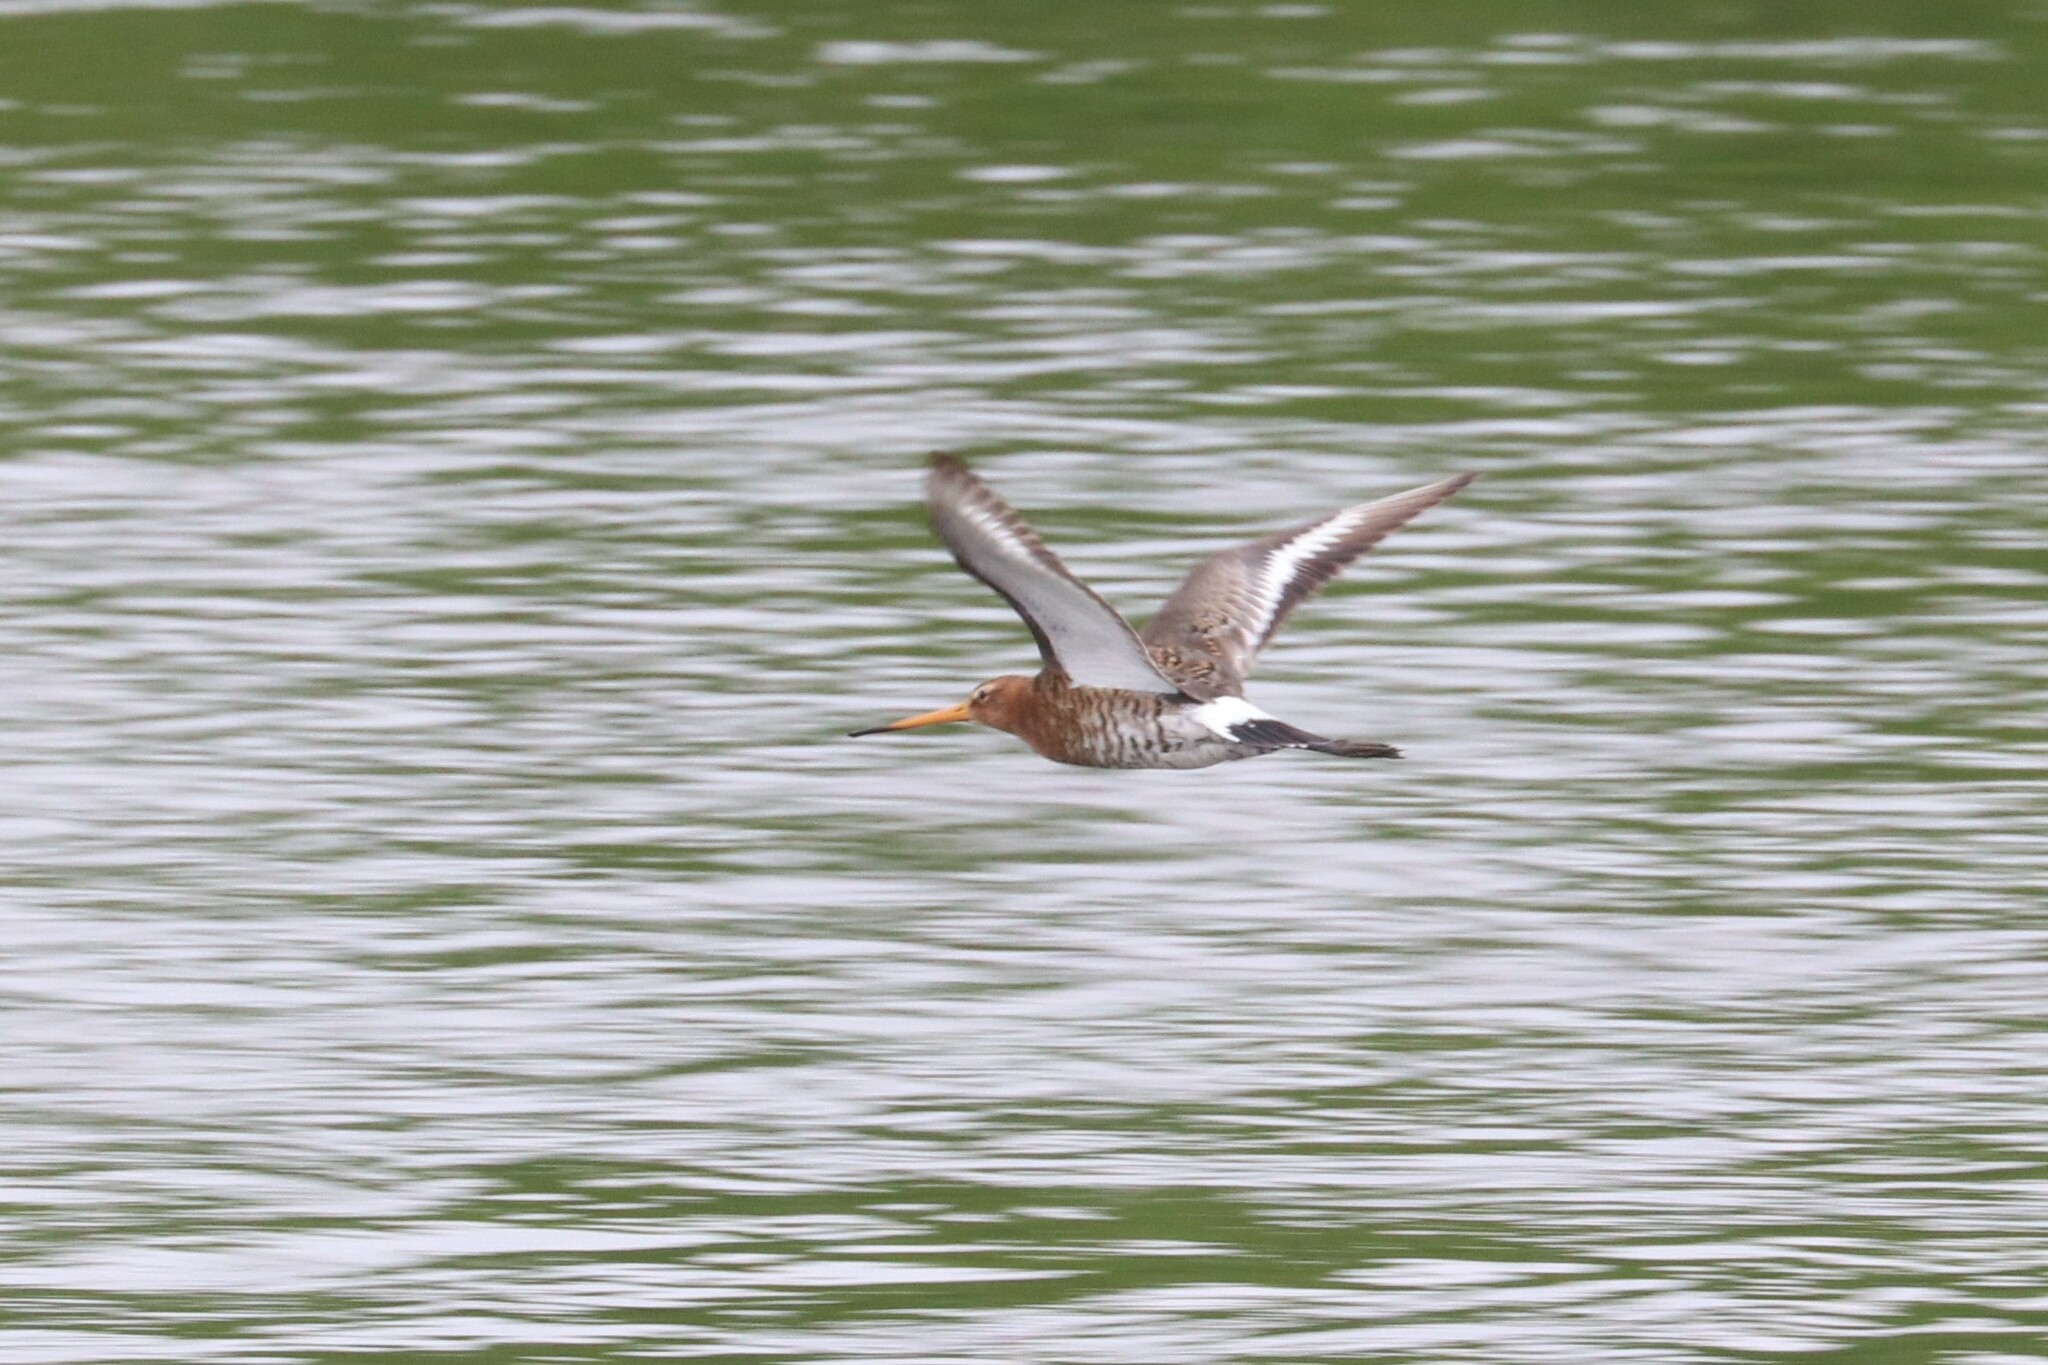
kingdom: Animalia
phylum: Chordata
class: Aves
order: Charadriiformes
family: Scolopacidae
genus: Limosa
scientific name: Limosa limosa
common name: Black-tailed godwit
